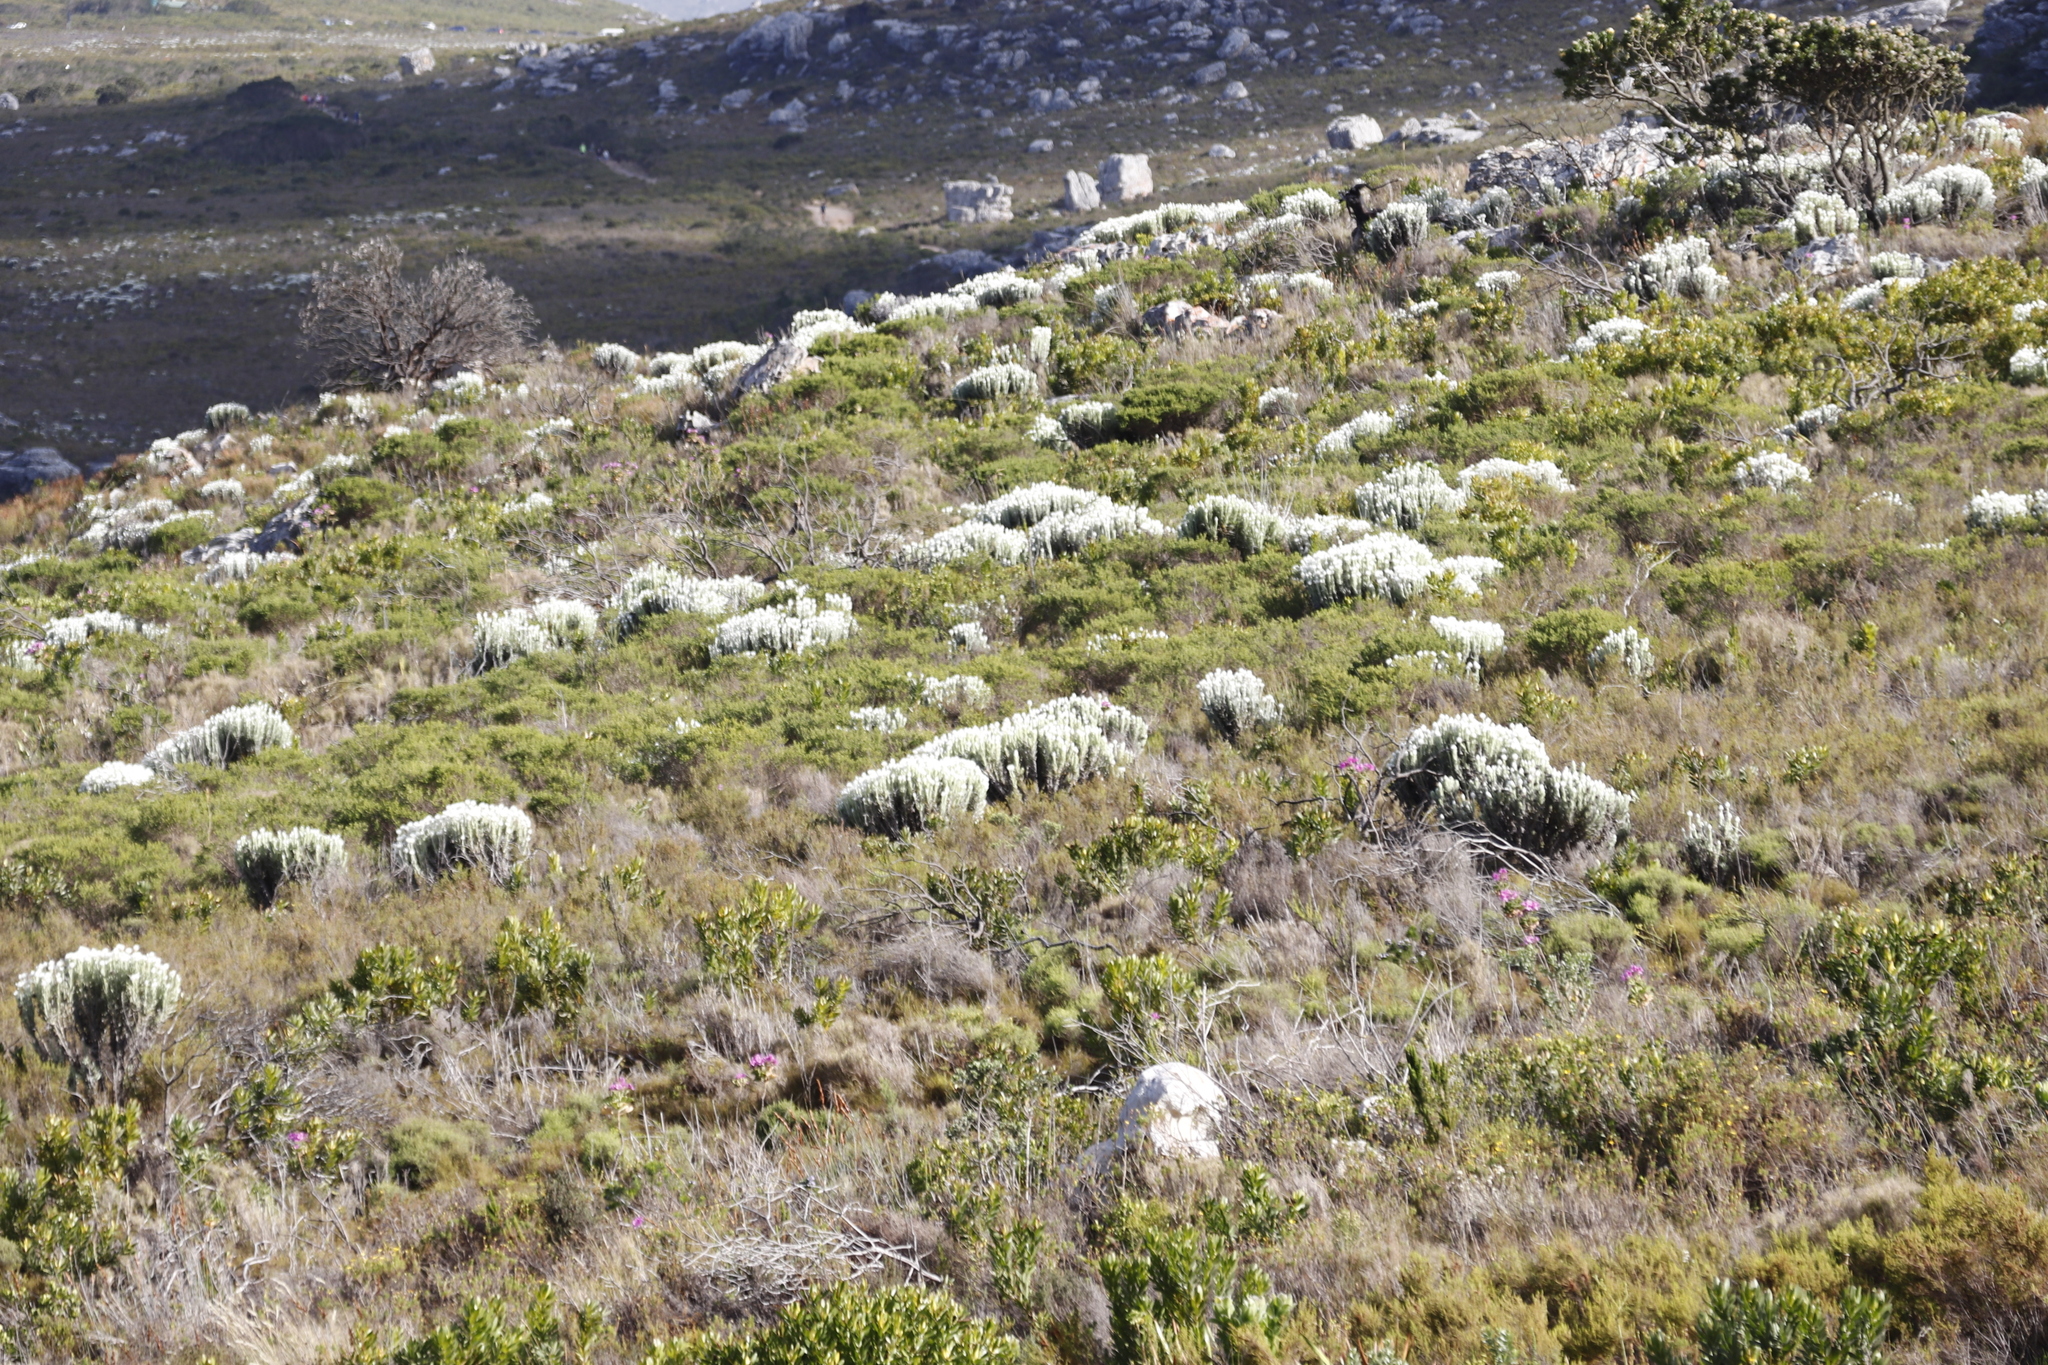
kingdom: Plantae
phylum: Tracheophyta
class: Magnoliopsida
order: Asterales
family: Asteraceae
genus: Syncarpha
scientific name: Syncarpha vestita
